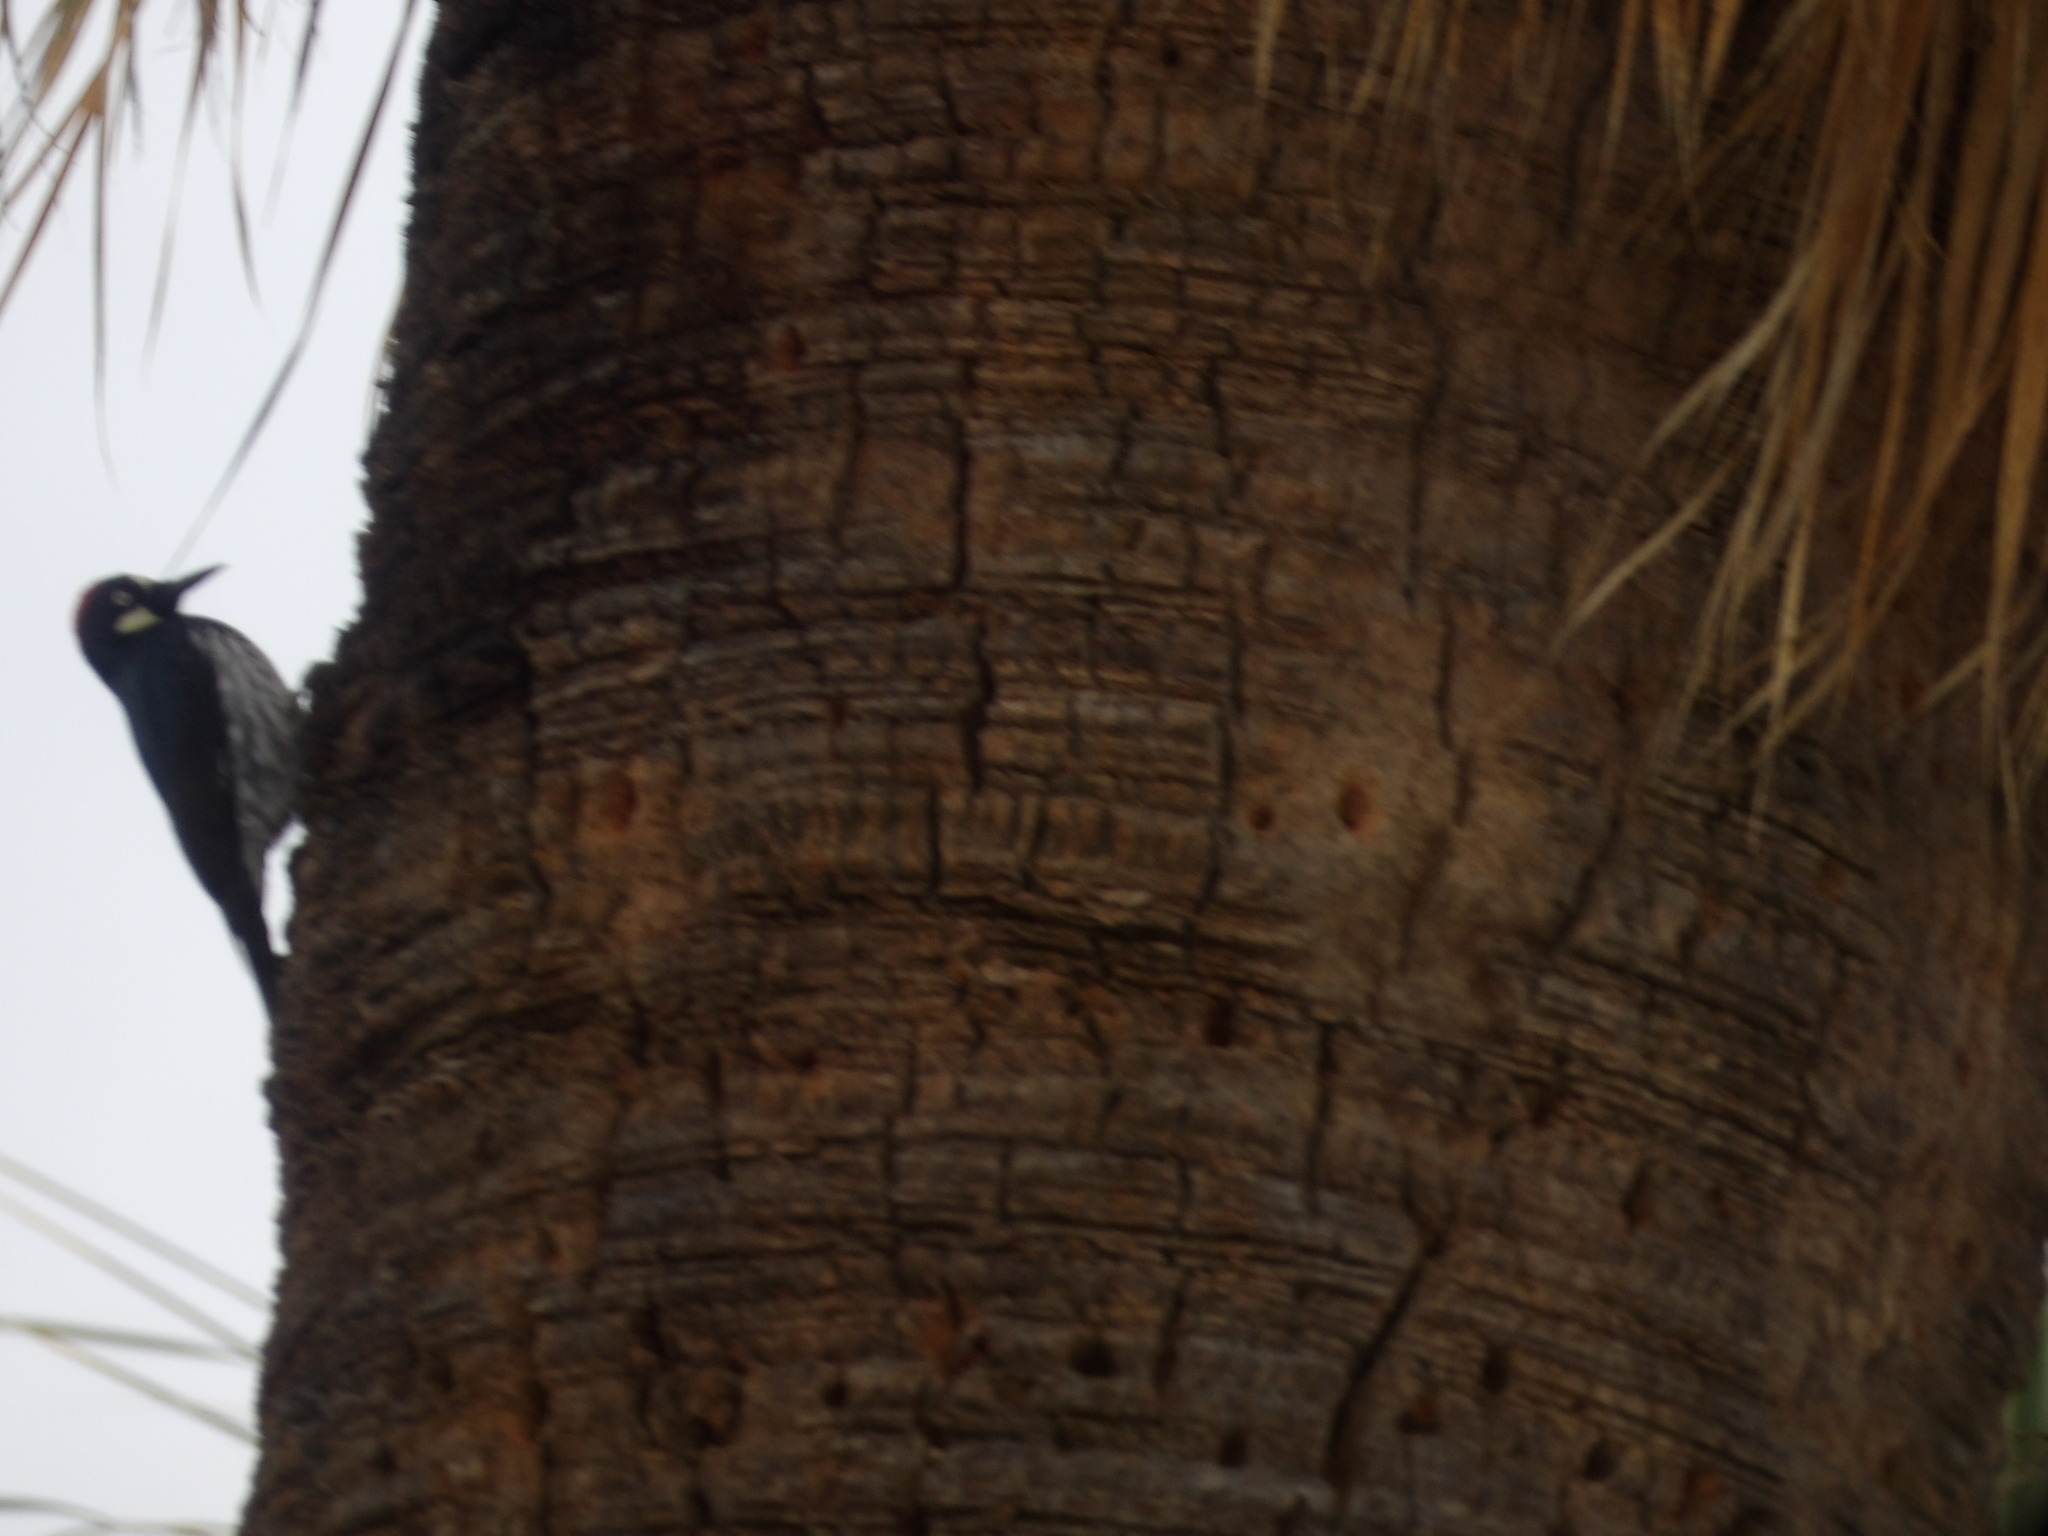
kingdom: Animalia
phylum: Chordata
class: Aves
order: Piciformes
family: Picidae
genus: Melanerpes
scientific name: Melanerpes formicivorus
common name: Acorn woodpecker
